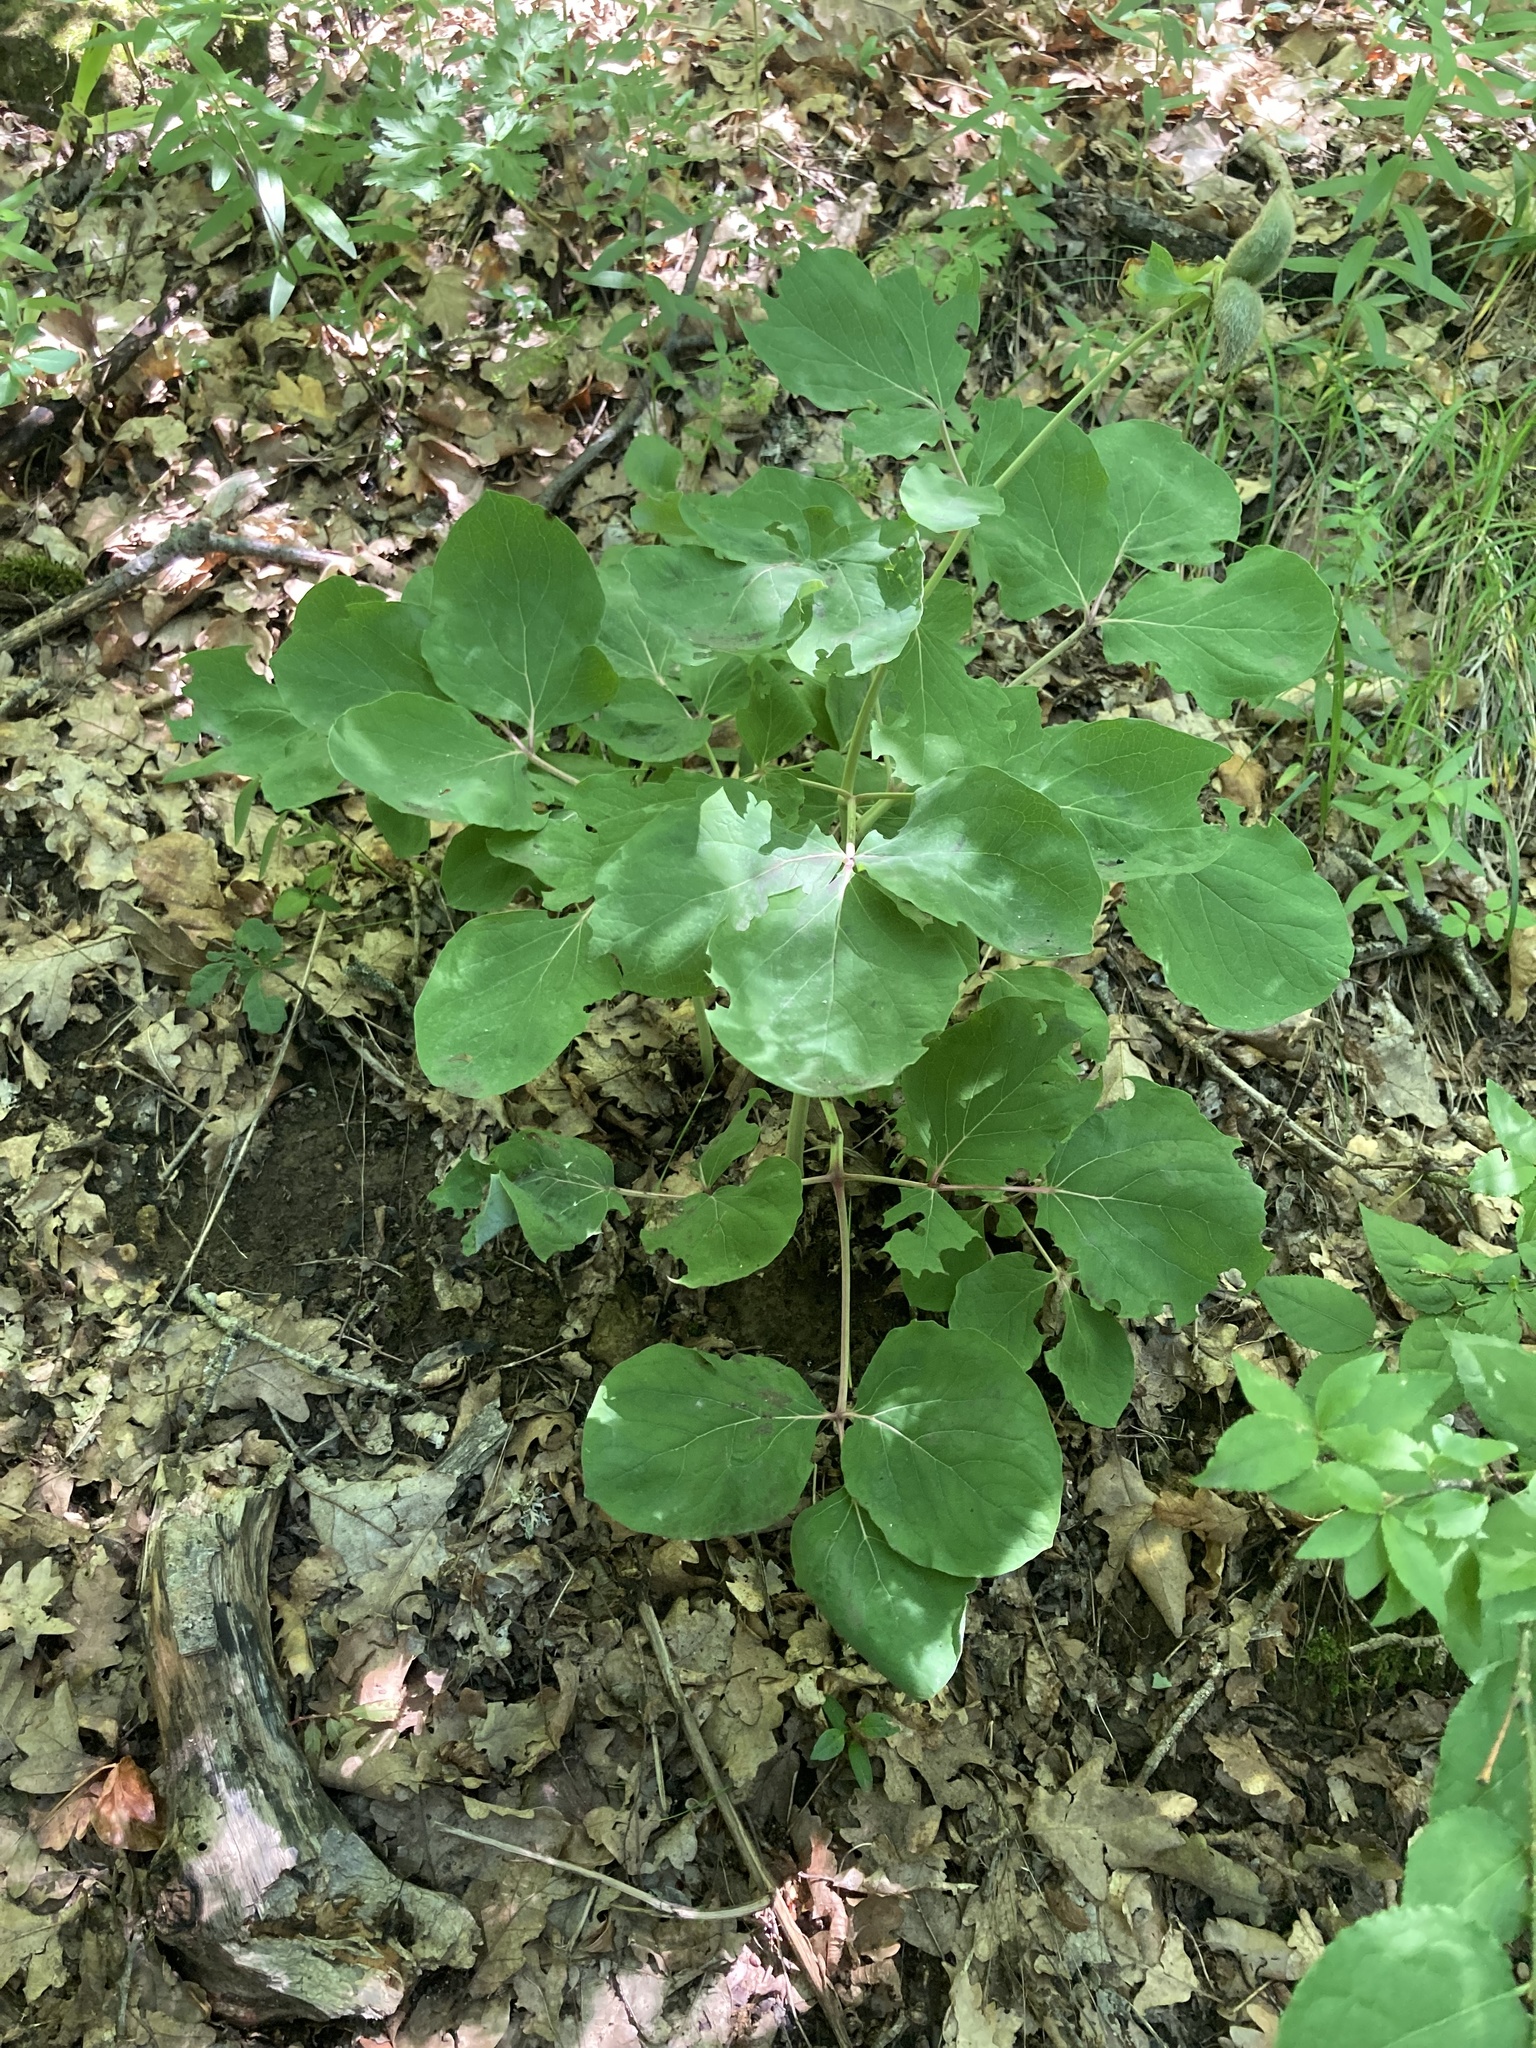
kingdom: Plantae
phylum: Tracheophyta
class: Magnoliopsida
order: Saxifragales
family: Paeoniaceae
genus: Paeonia
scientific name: Paeonia daurica
